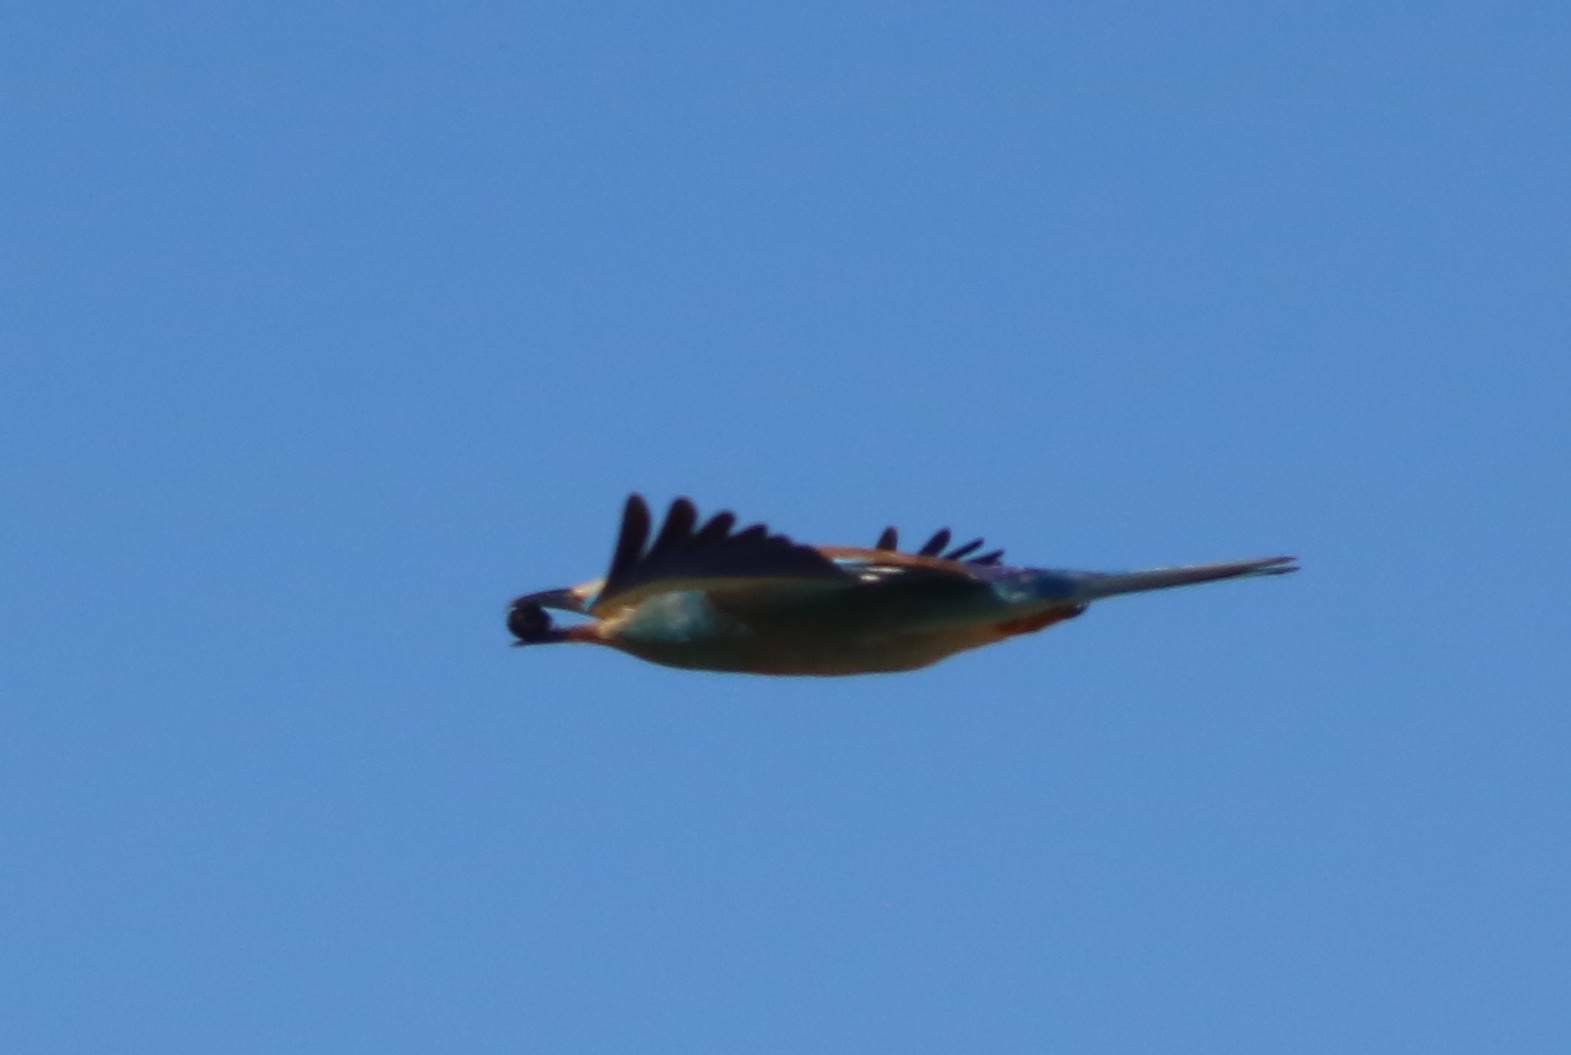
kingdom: Animalia
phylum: Chordata
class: Aves
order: Coraciiformes
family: Coraciidae
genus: Coracias
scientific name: Coracias garrulus
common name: European roller
